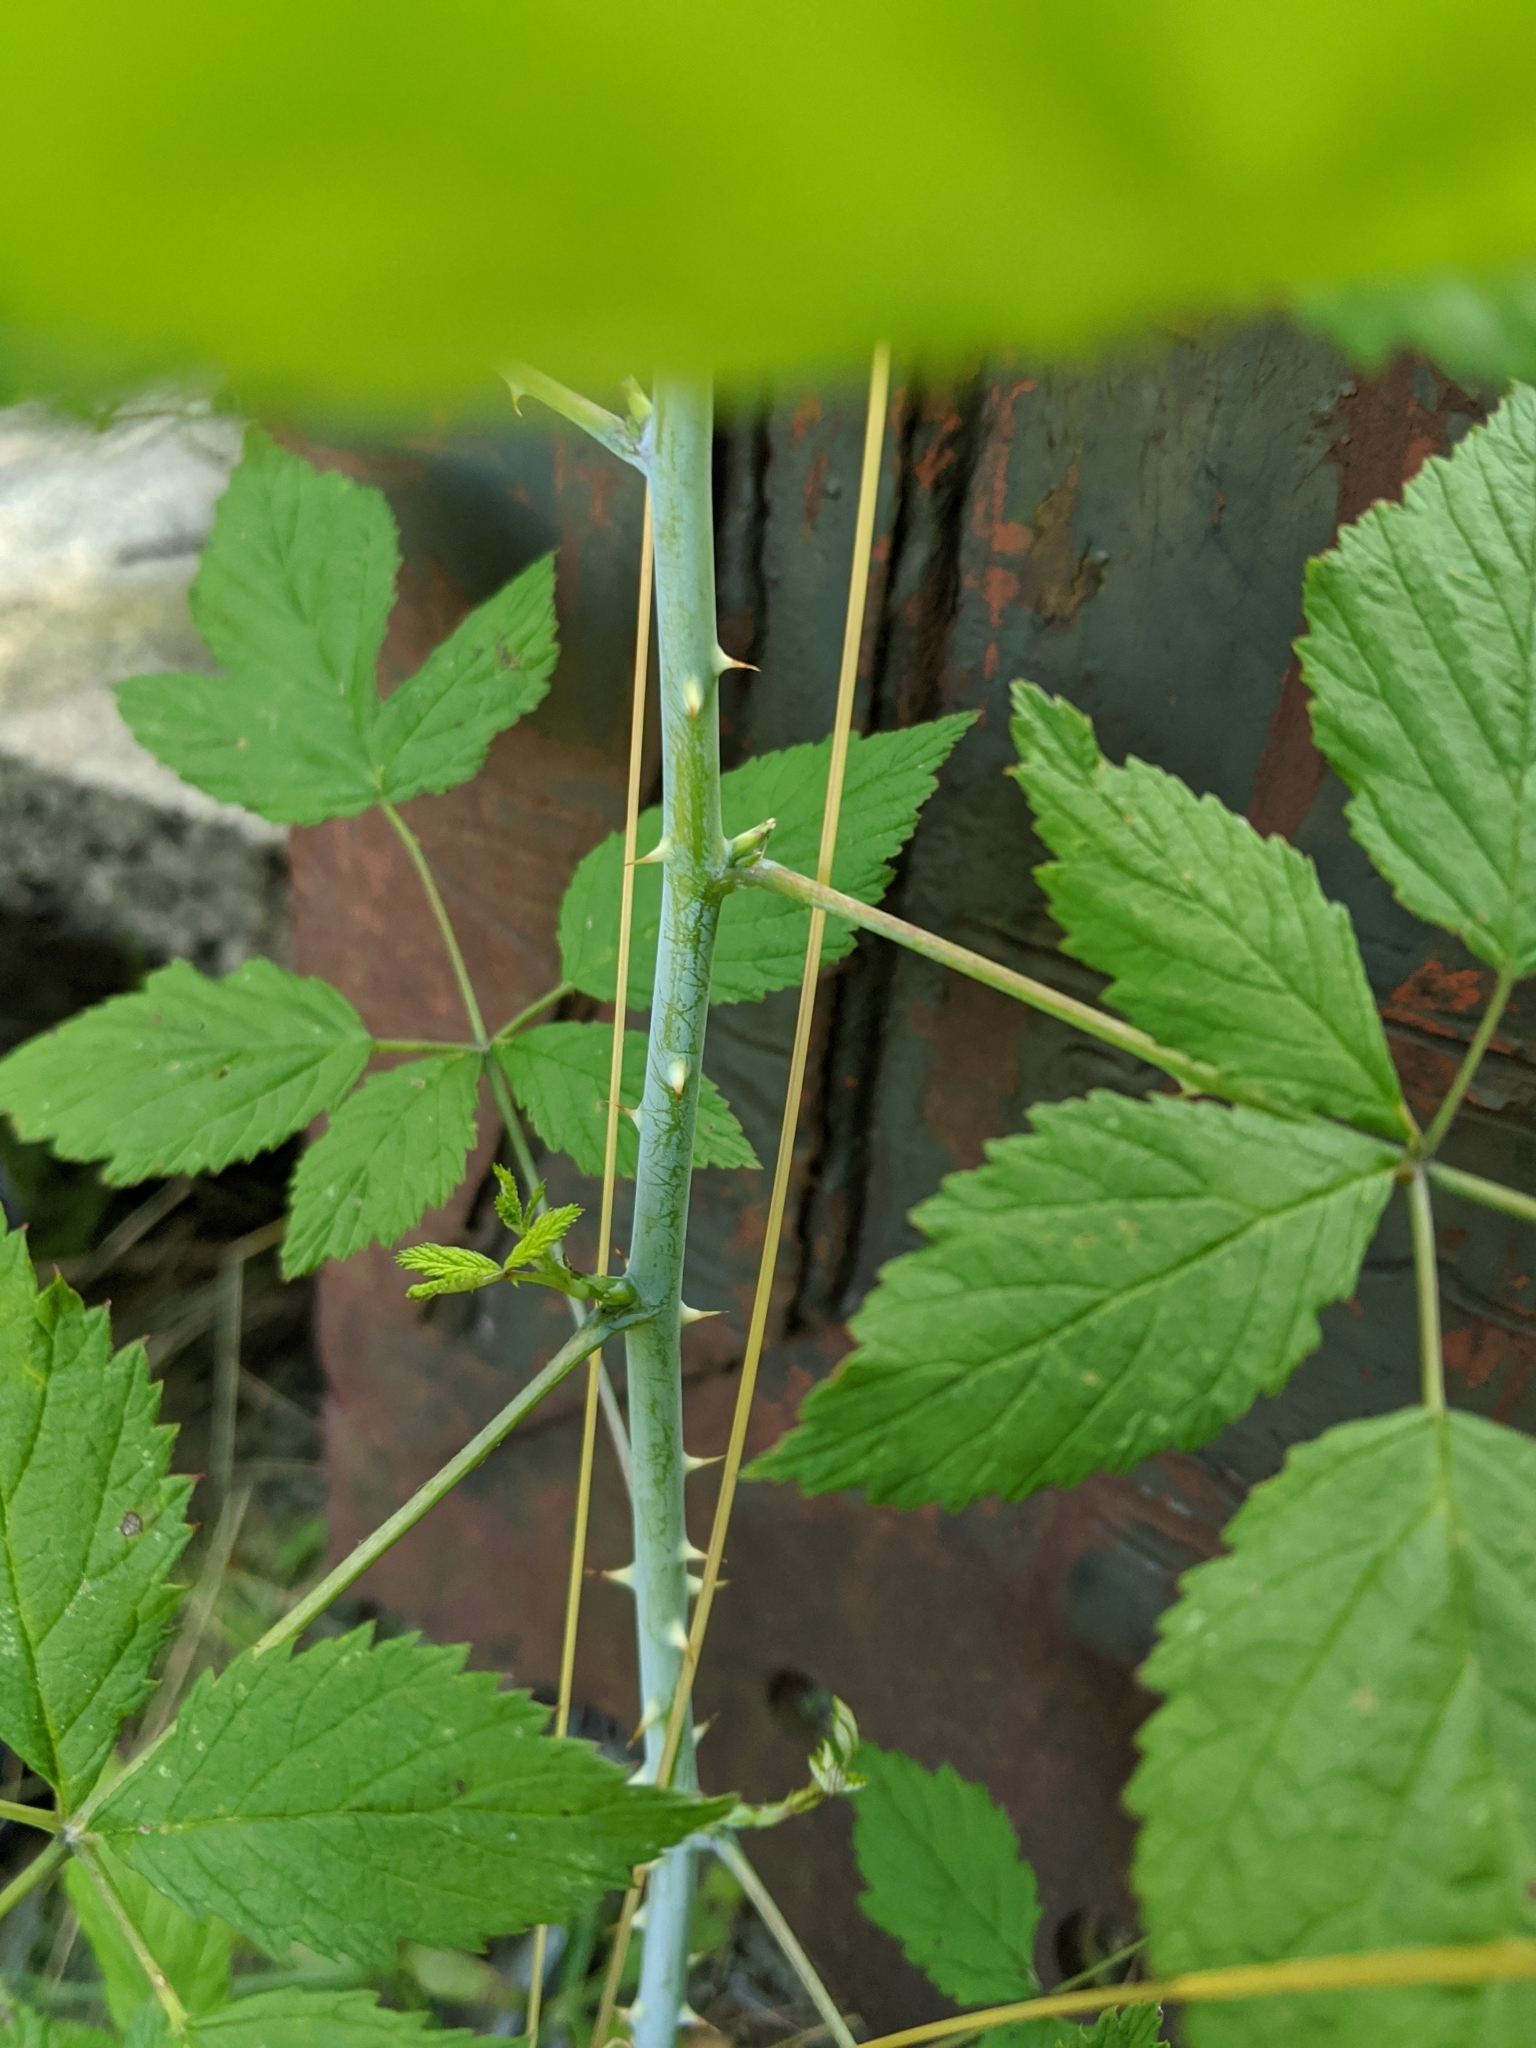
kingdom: Plantae
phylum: Tracheophyta
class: Magnoliopsida
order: Rosales
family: Rosaceae
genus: Rubus
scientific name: Rubus leucodermis
